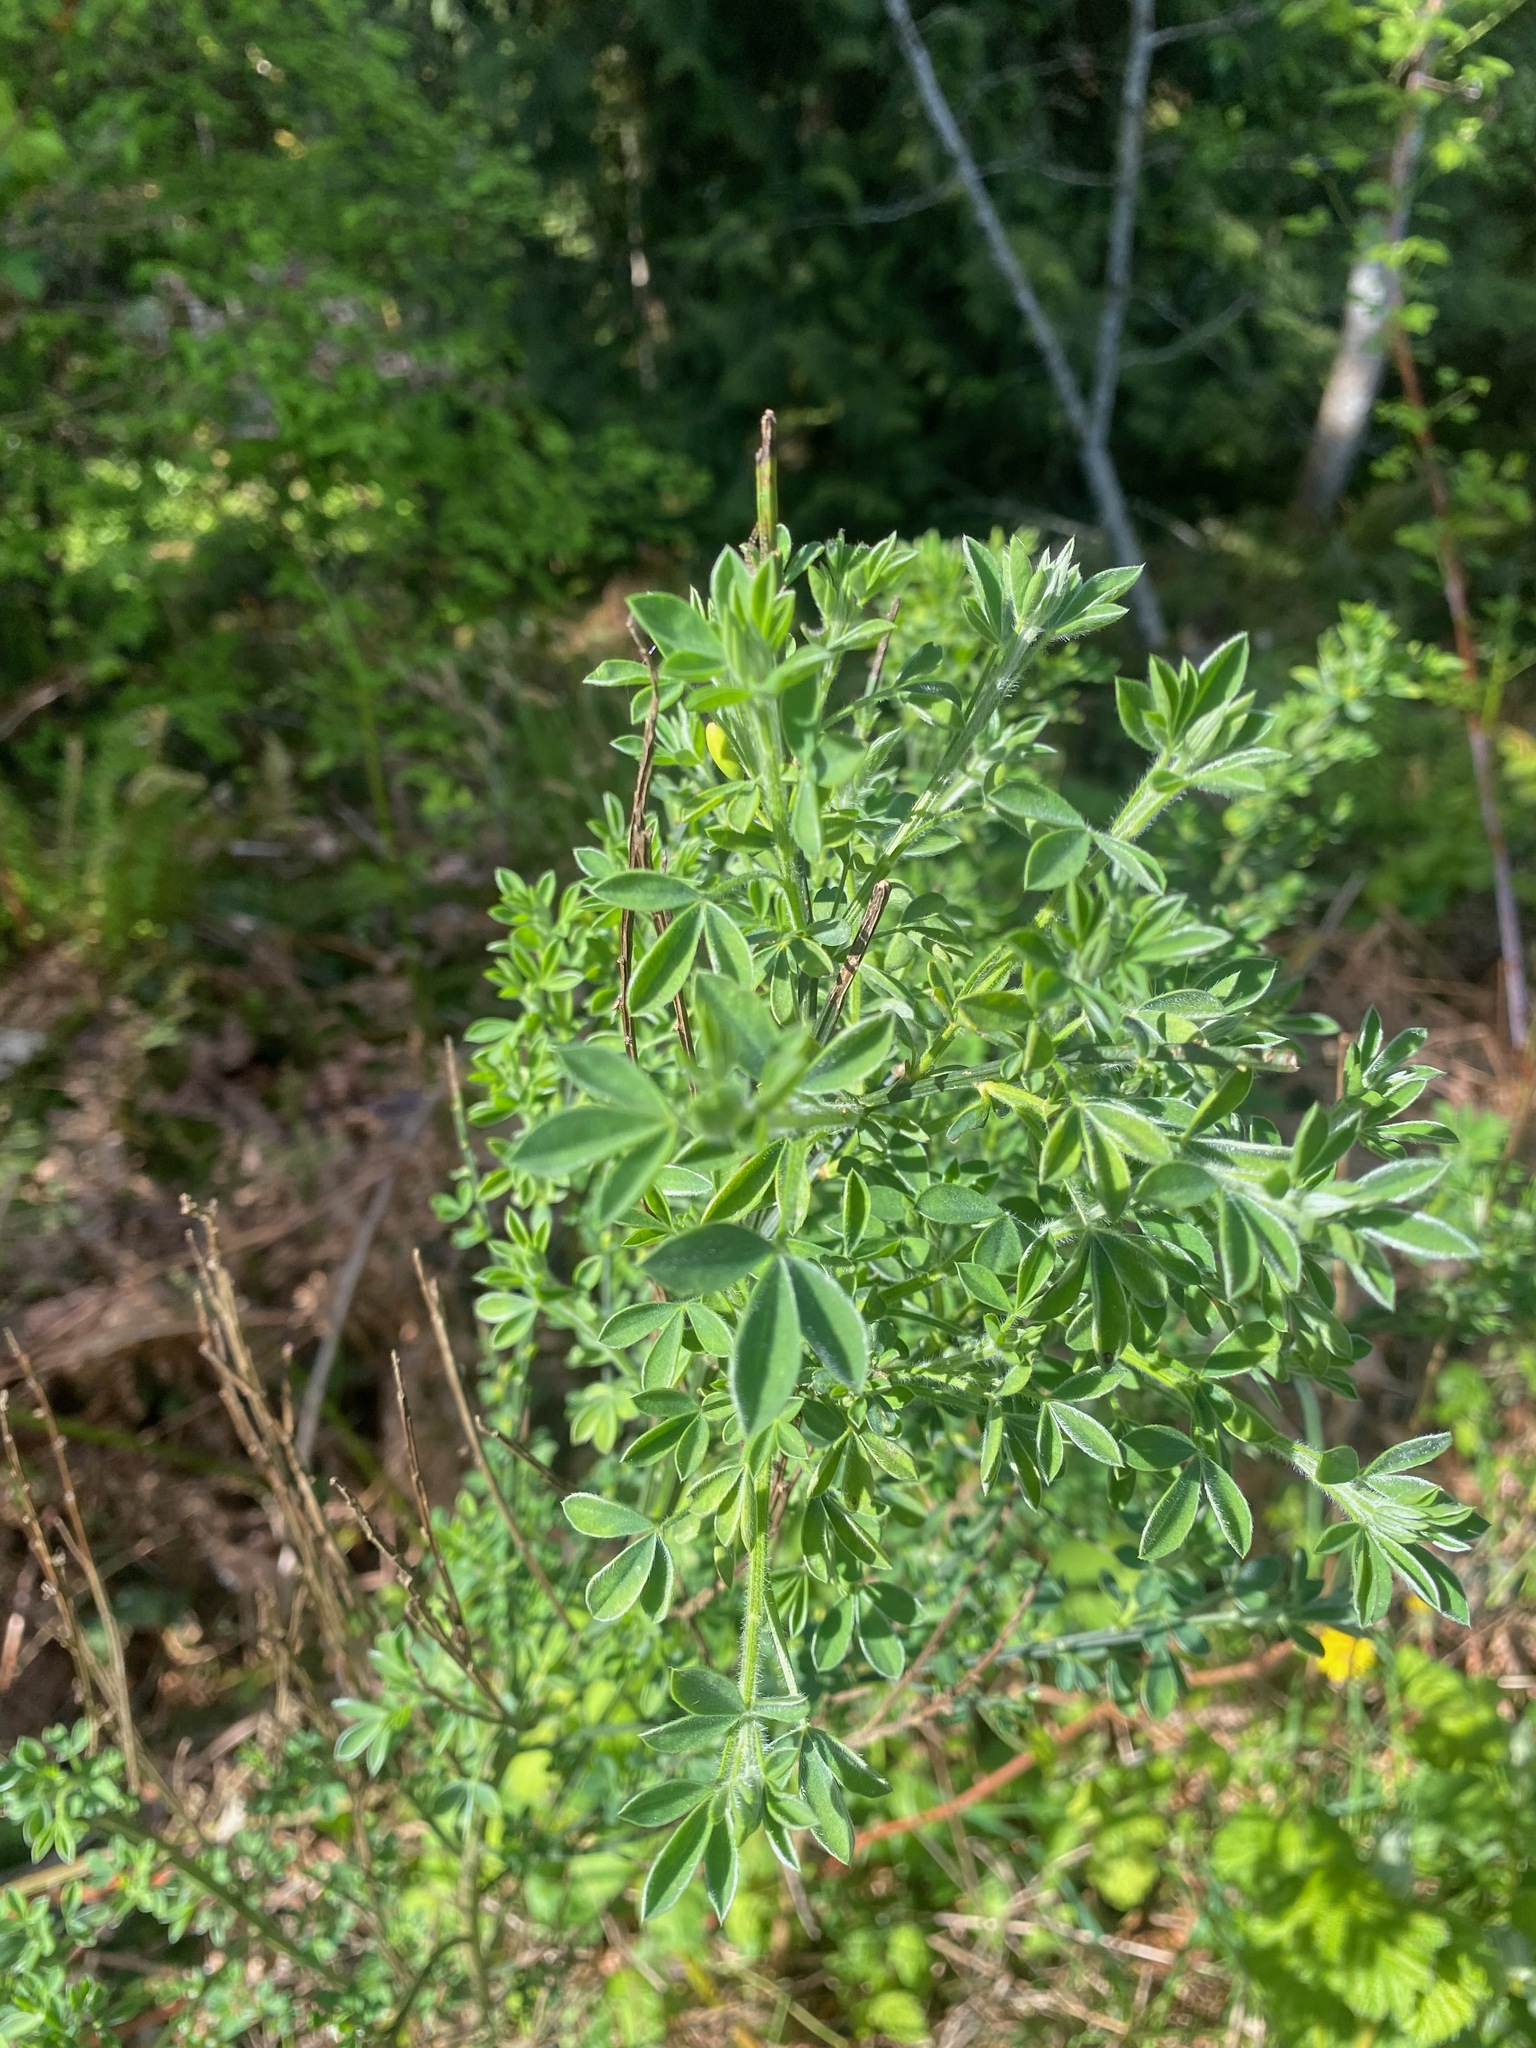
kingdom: Plantae
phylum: Tracheophyta
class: Magnoliopsida
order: Fabales
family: Fabaceae
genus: Cytisus
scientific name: Cytisus scoparius
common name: Scotch broom
